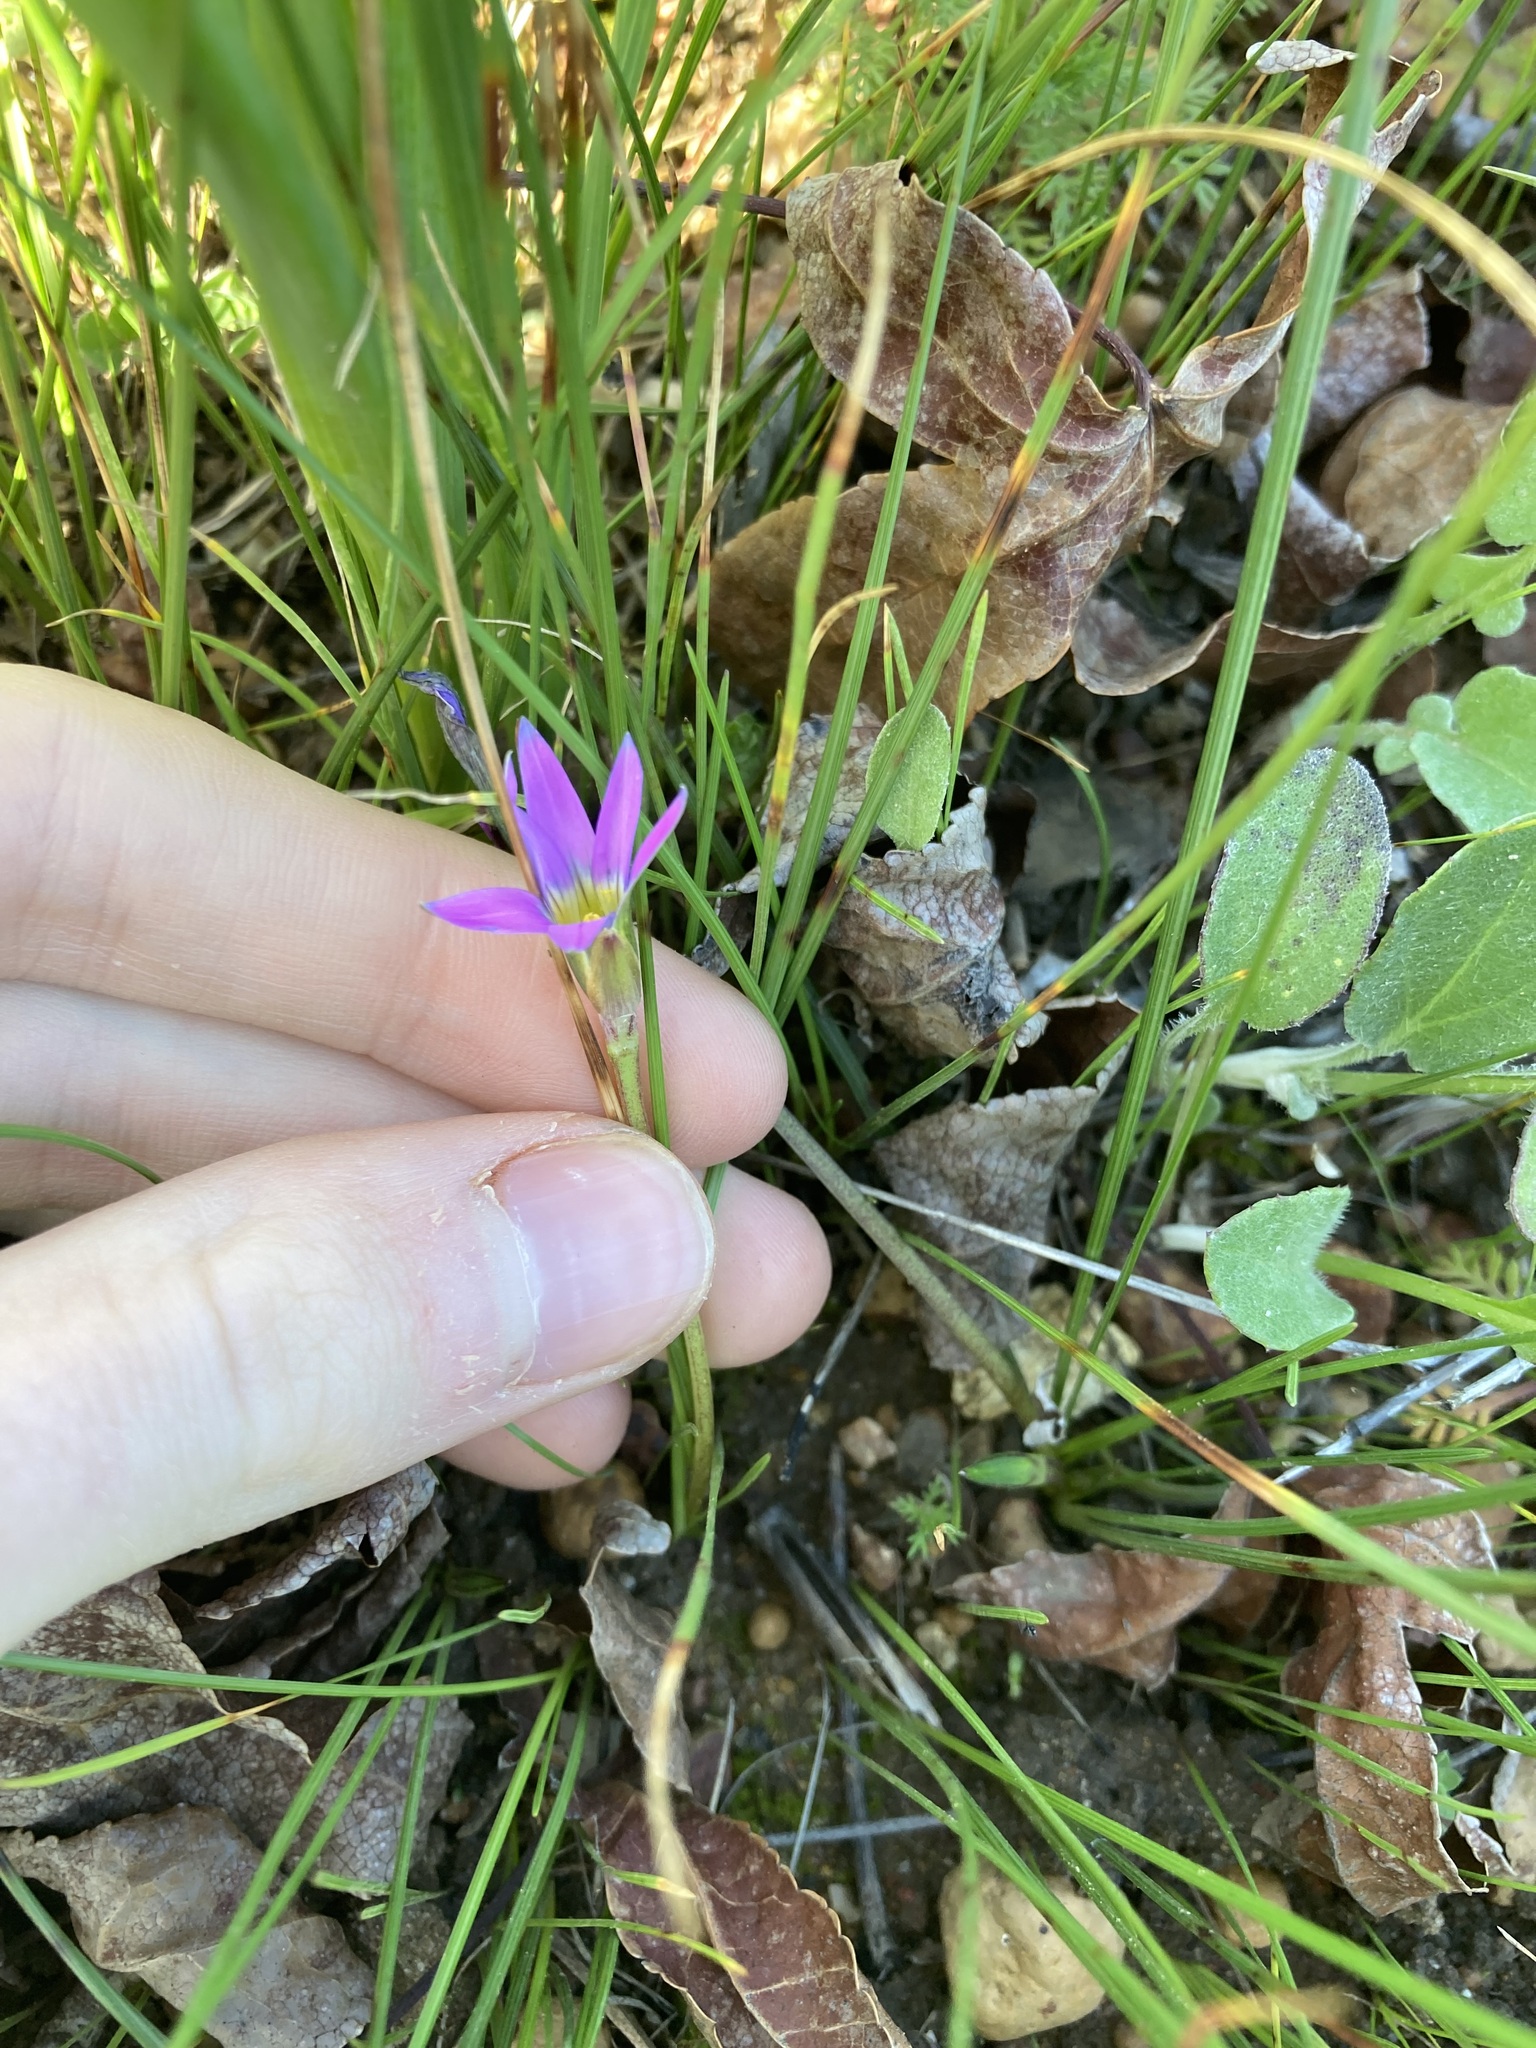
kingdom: Plantae
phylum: Tracheophyta
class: Liliopsida
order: Asparagales
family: Iridaceae
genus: Romulea
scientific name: Romulea rosea
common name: Oniongrass
